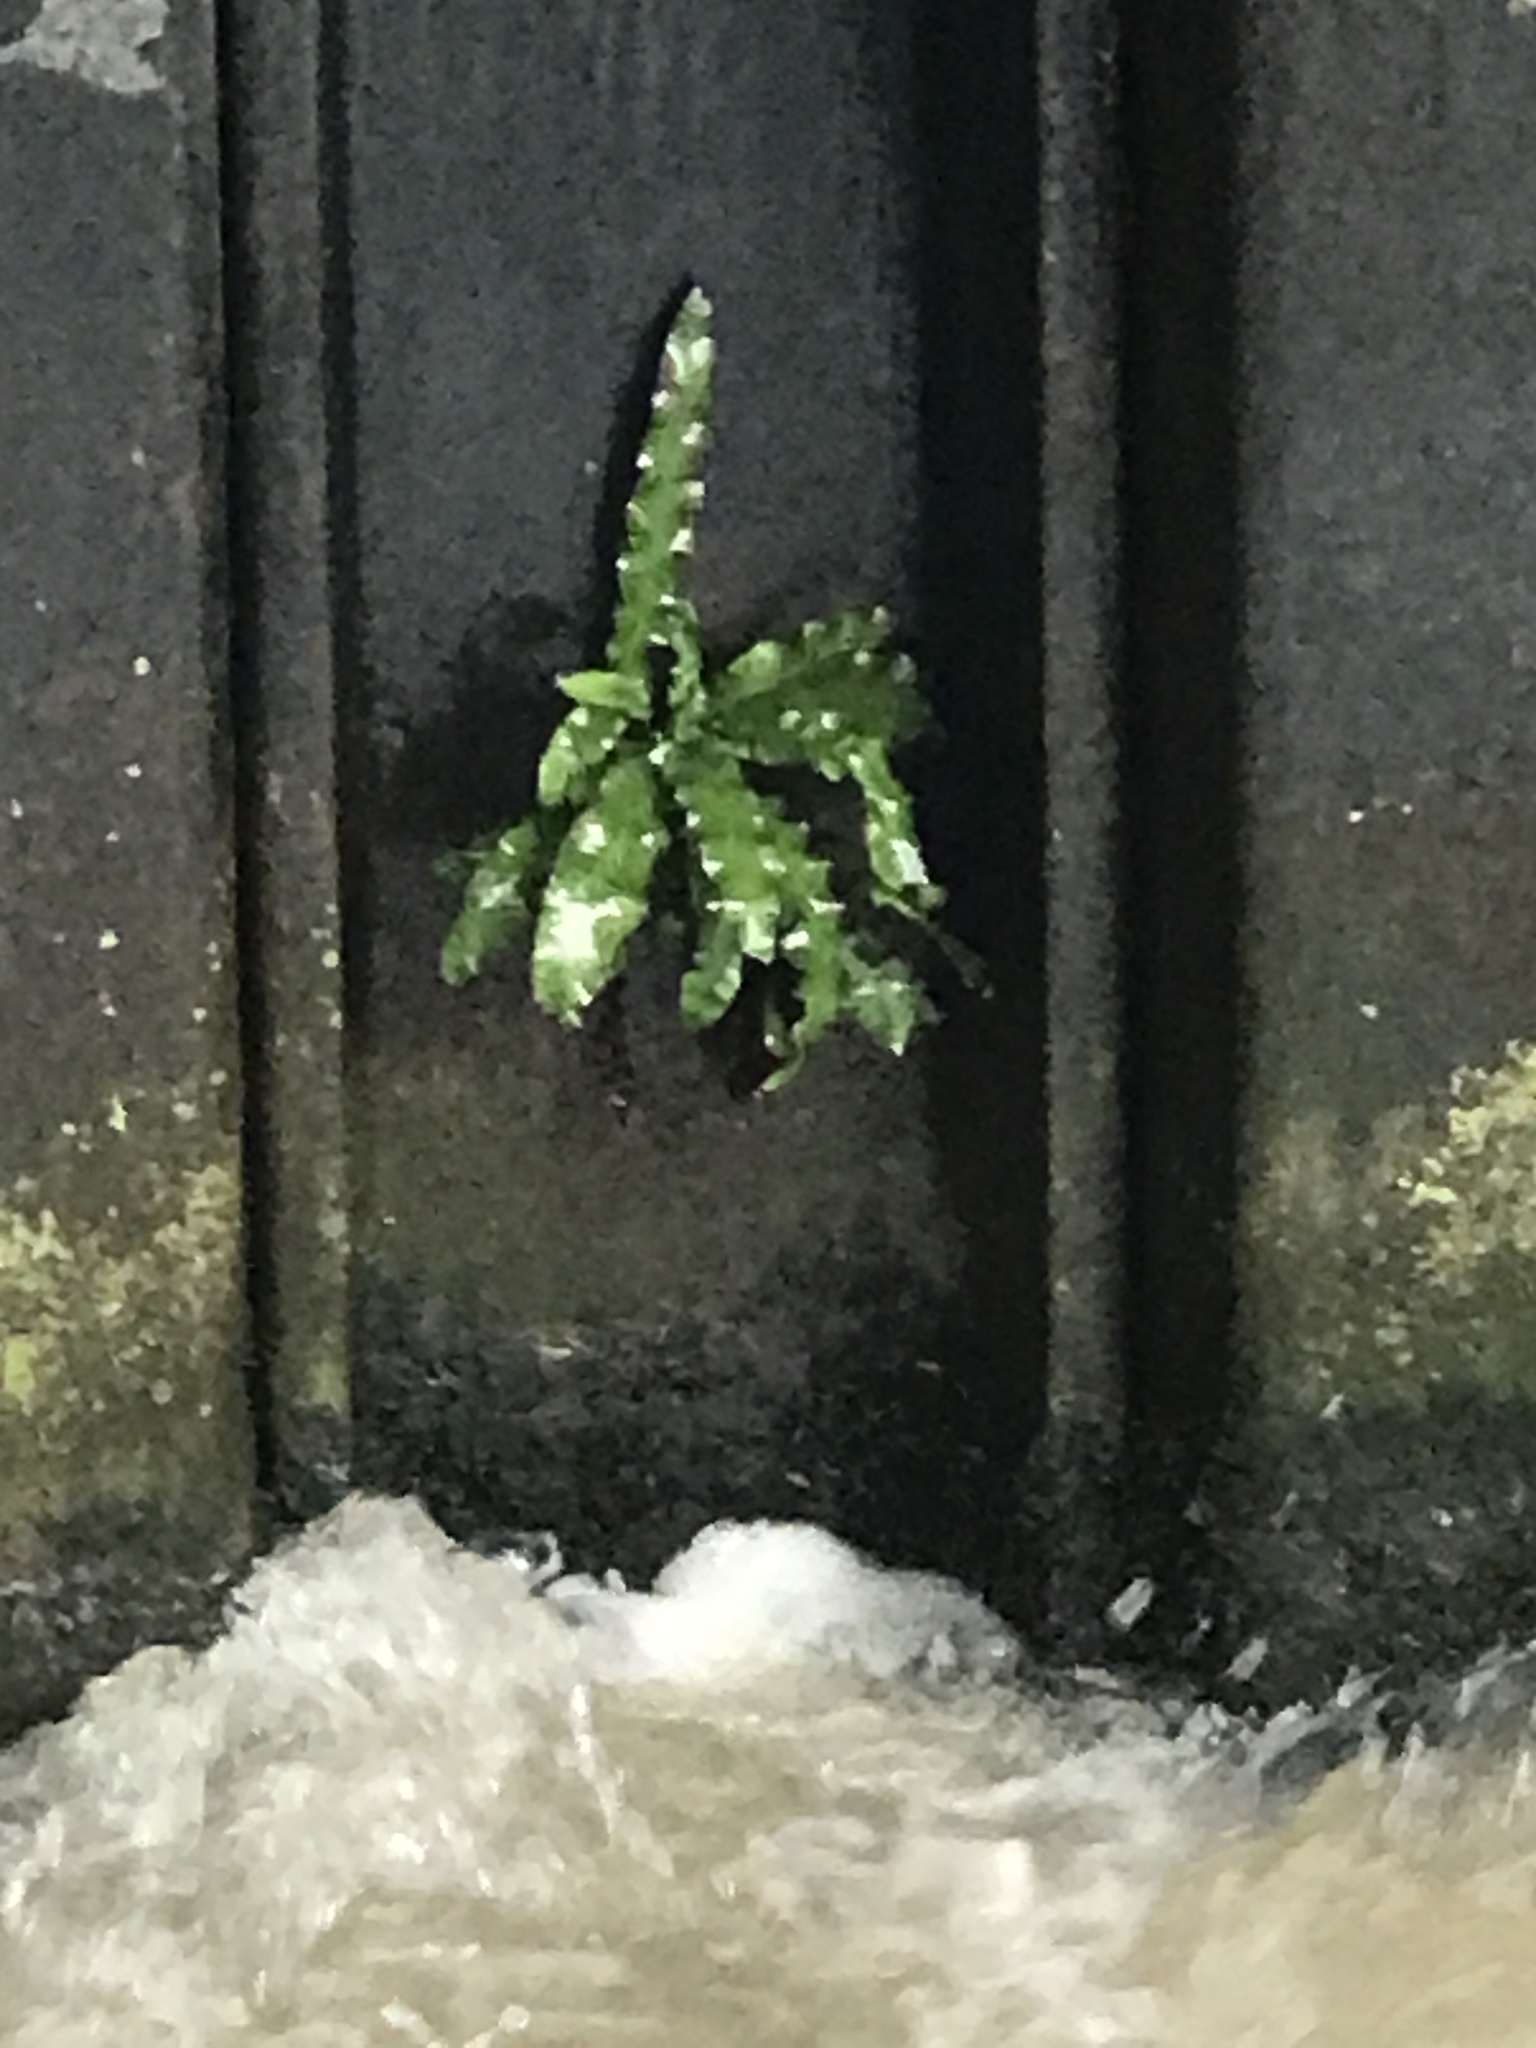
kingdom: Plantae
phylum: Tracheophyta
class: Polypodiopsida
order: Polypodiales
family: Aspleniaceae
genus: Asplenium
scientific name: Asplenium scolopendrium
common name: Hart's-tongue fern
